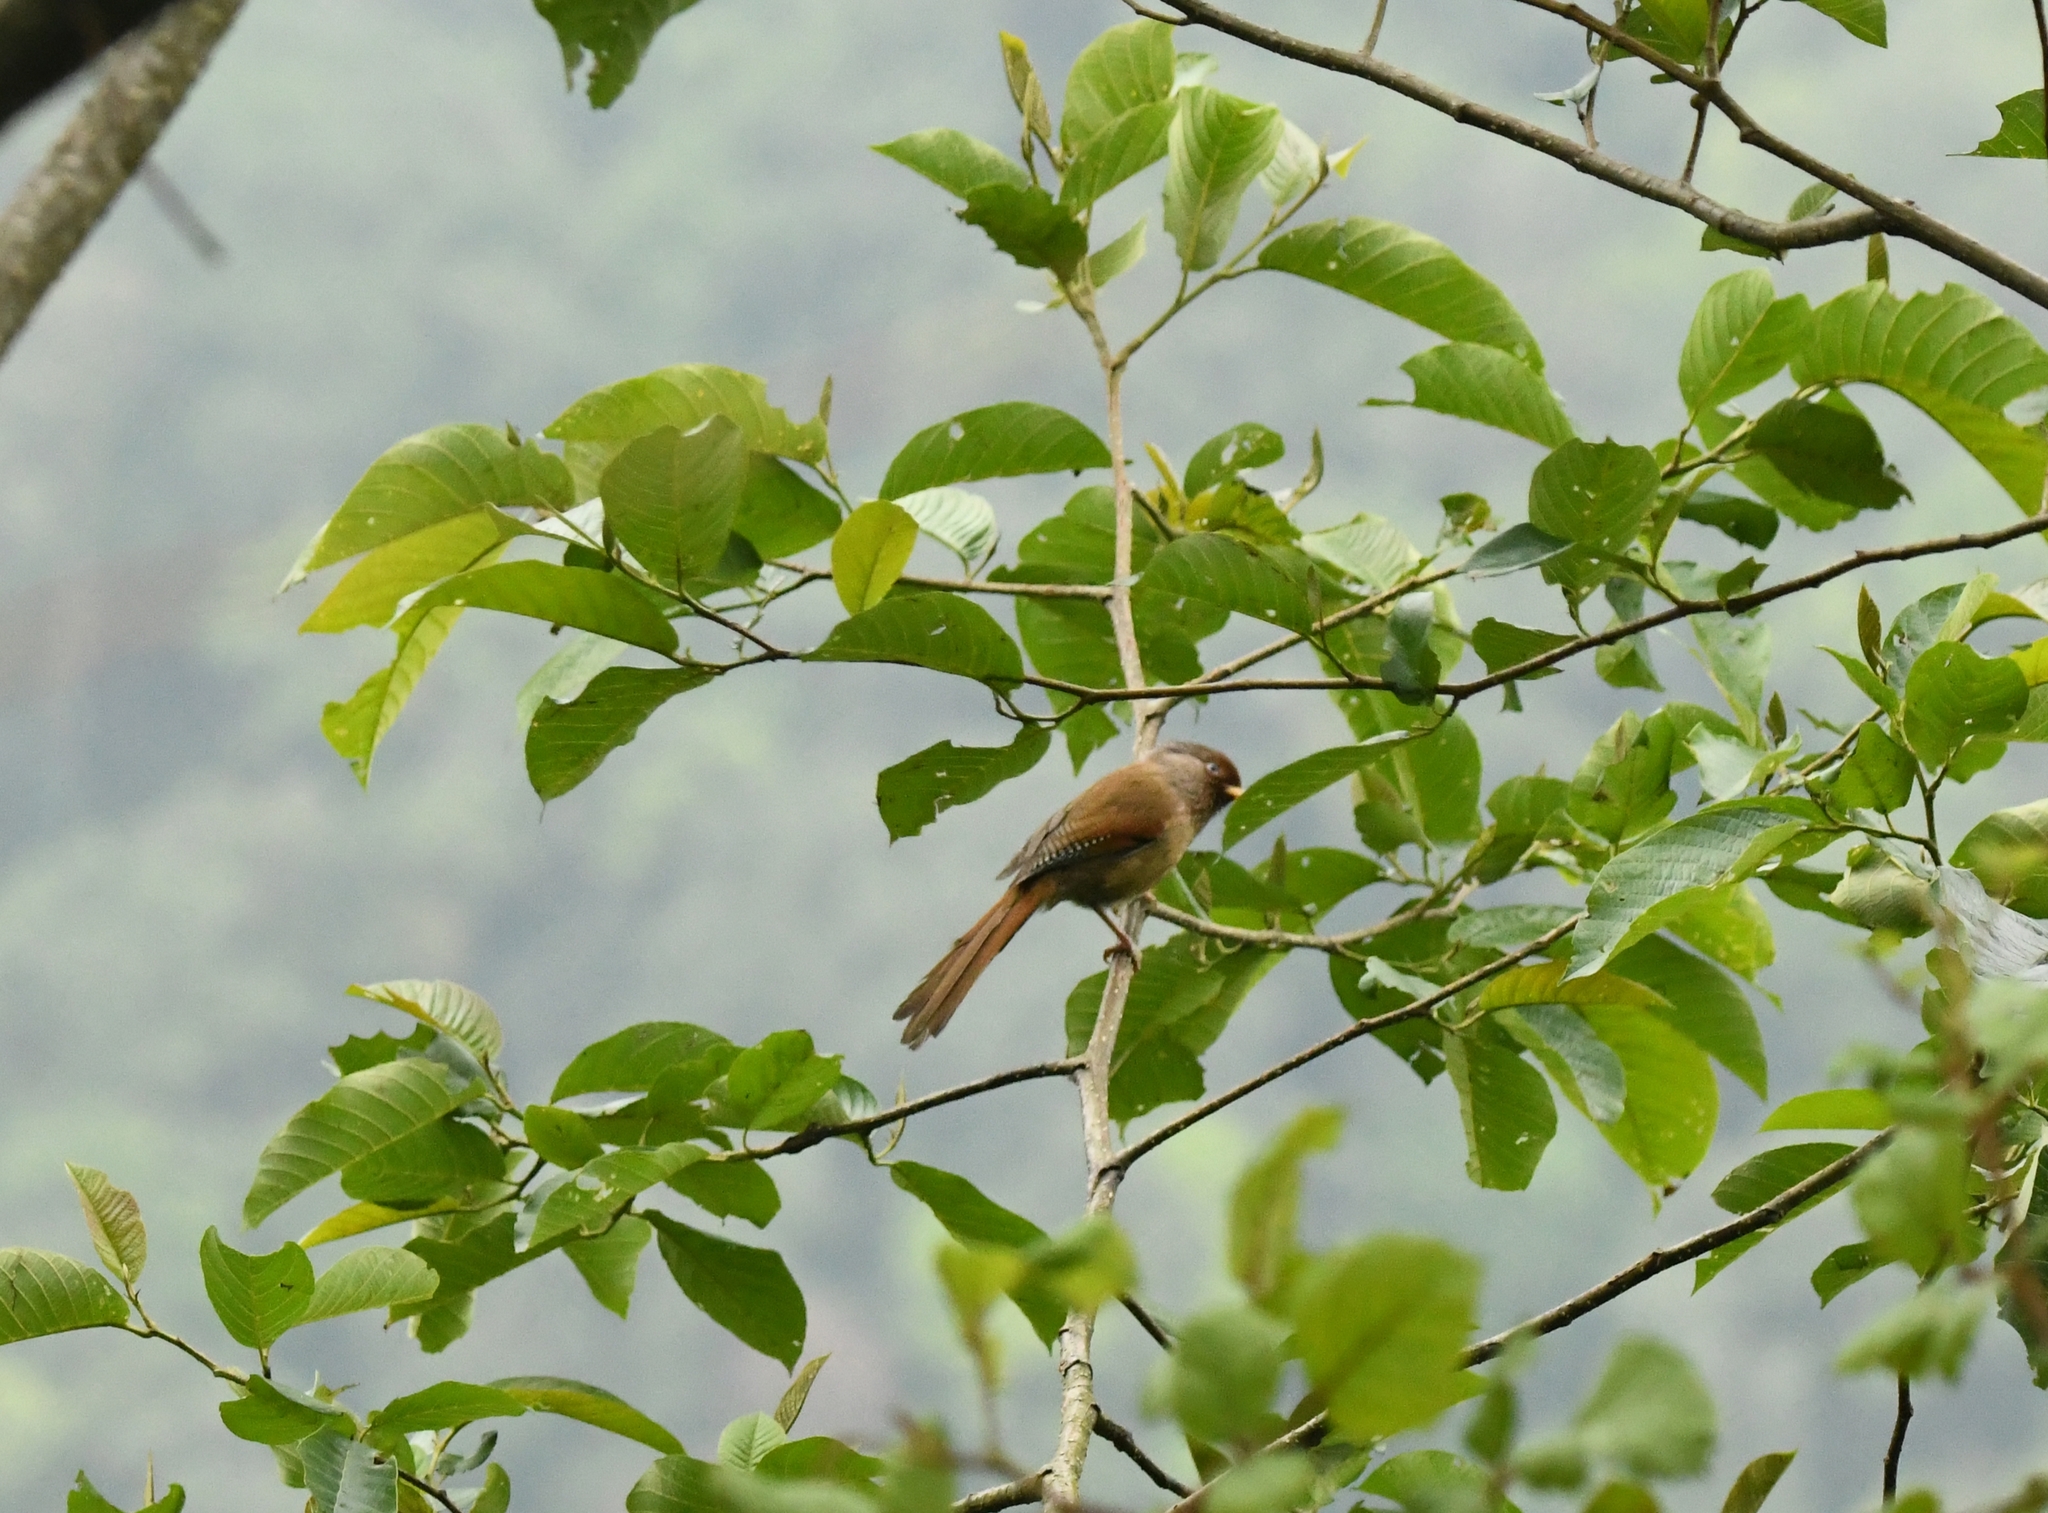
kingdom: Animalia
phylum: Chordata
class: Aves
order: Passeriformes
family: Leiothrichidae
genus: Actinodura
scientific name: Actinodura egertoni
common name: Rusty-fronted barwing
